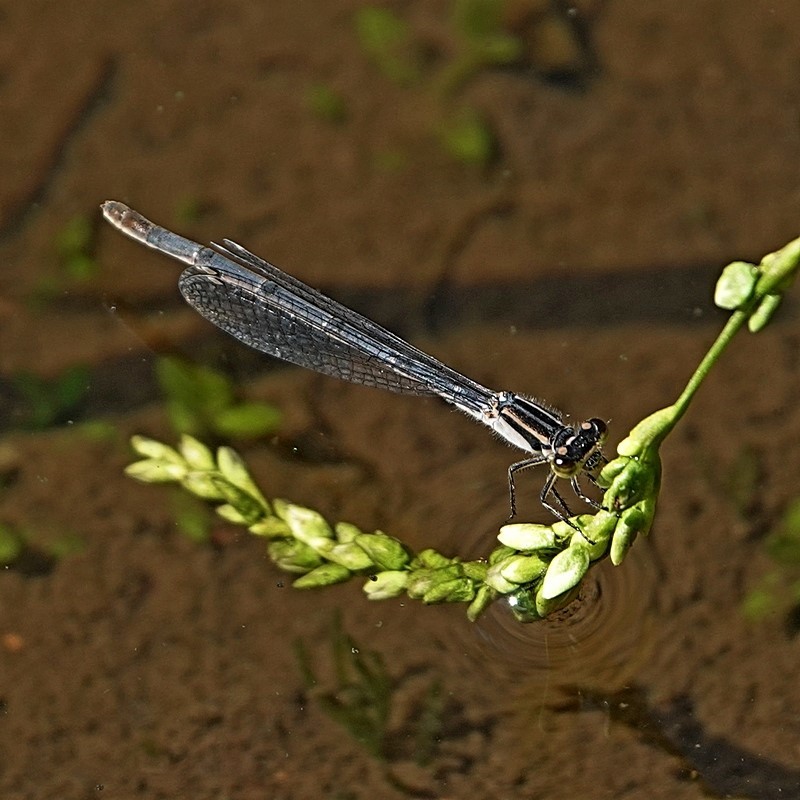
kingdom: Animalia
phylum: Arthropoda
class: Insecta
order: Odonata
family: Coenagrionidae
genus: Ischnura
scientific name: Ischnura heterosticta
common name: Common bluetail
